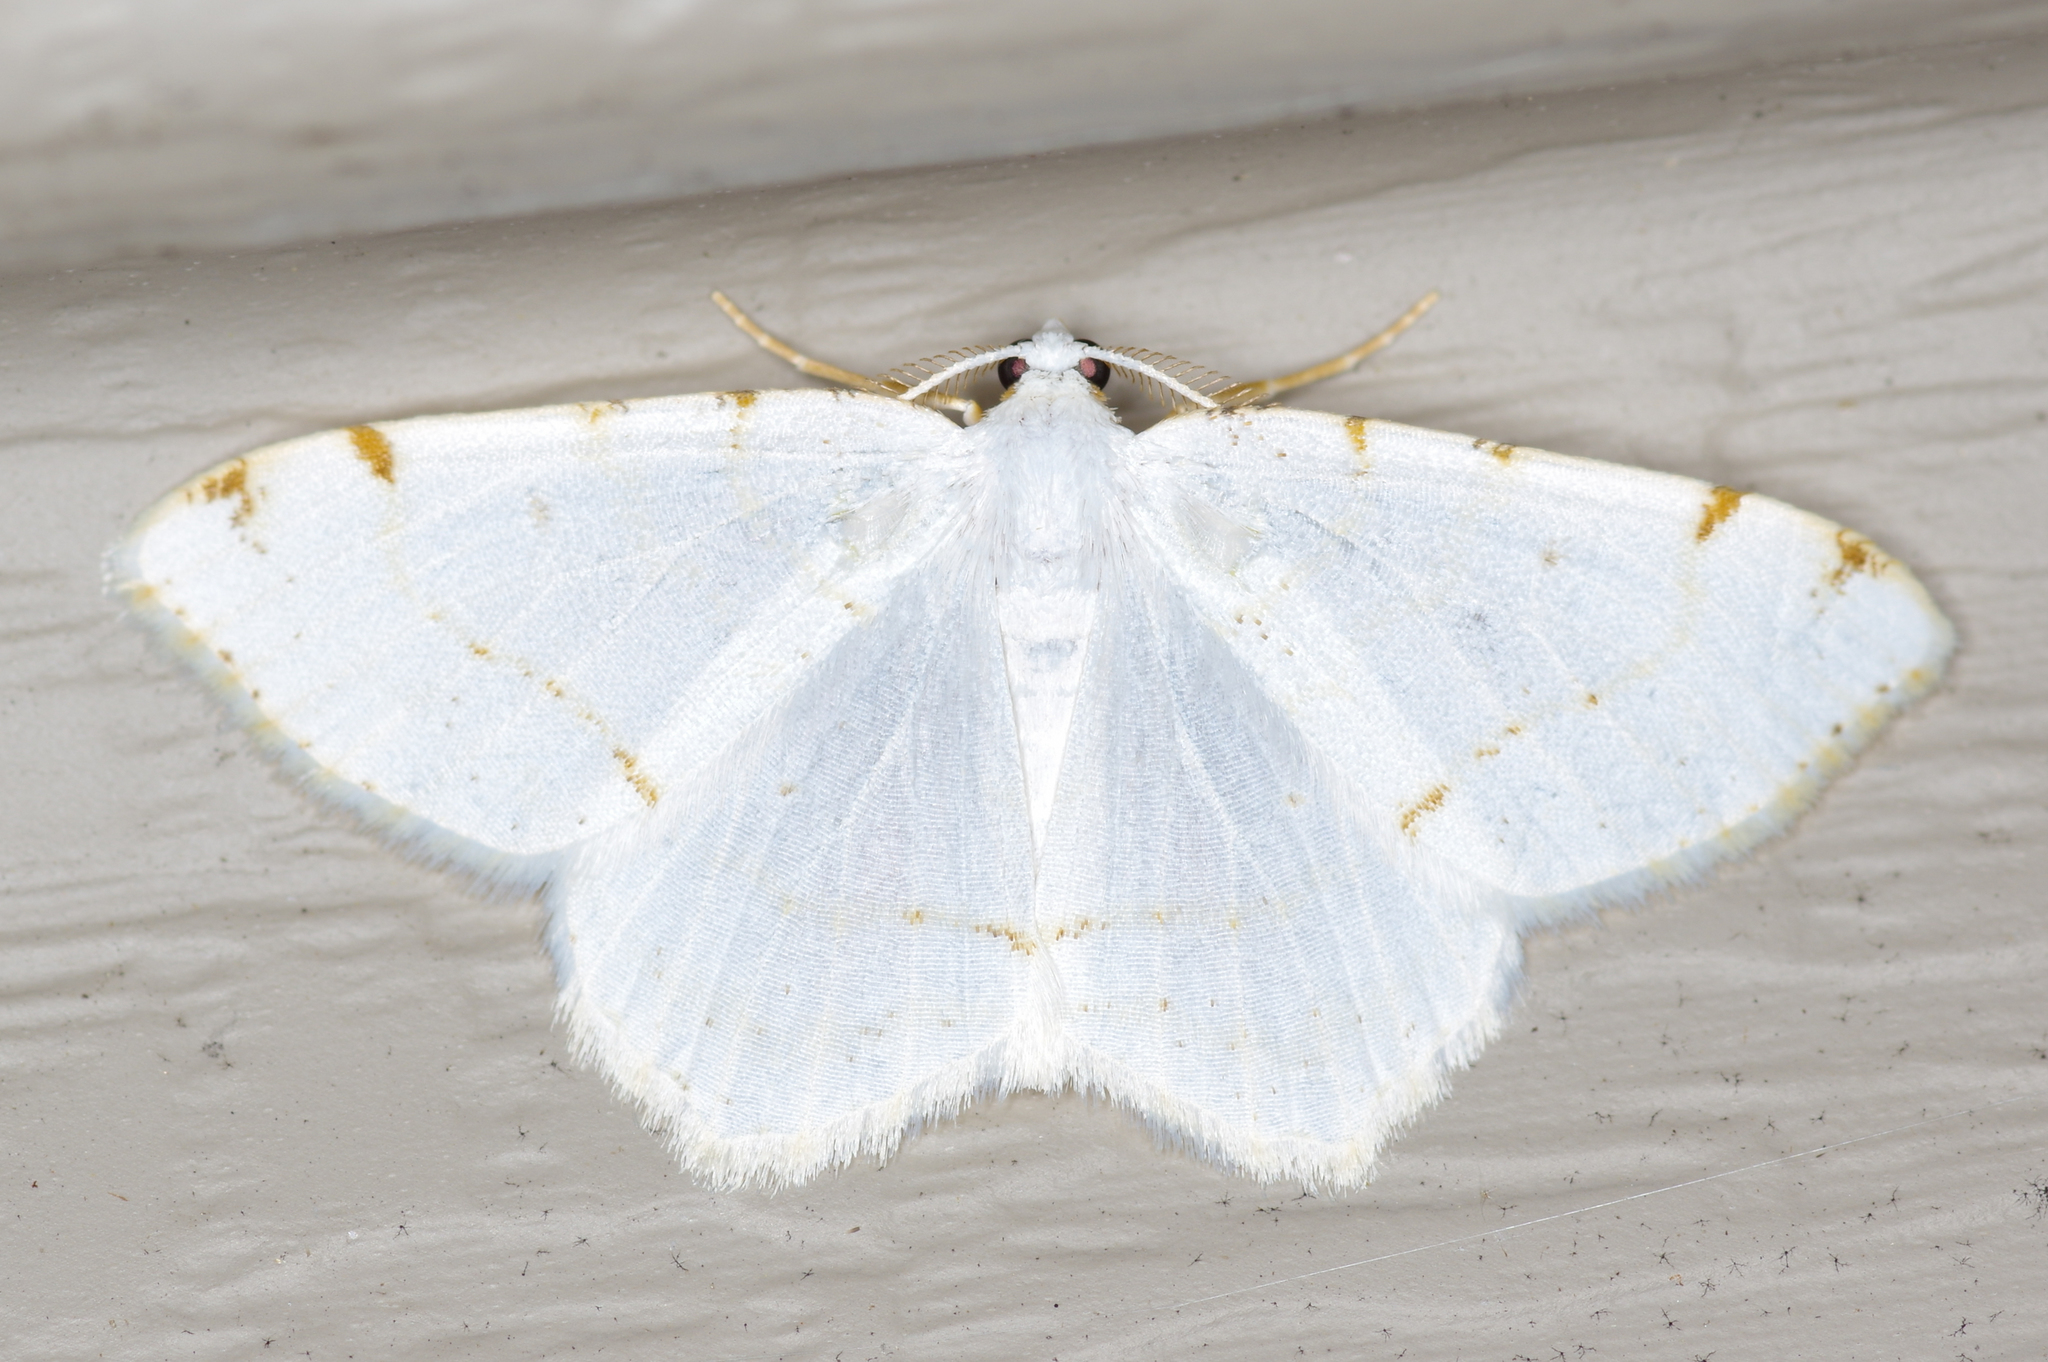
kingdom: Animalia
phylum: Arthropoda
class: Insecta
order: Lepidoptera
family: Geometridae
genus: Macaria
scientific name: Macaria pustularia
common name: Lesser maple spanworm moth
